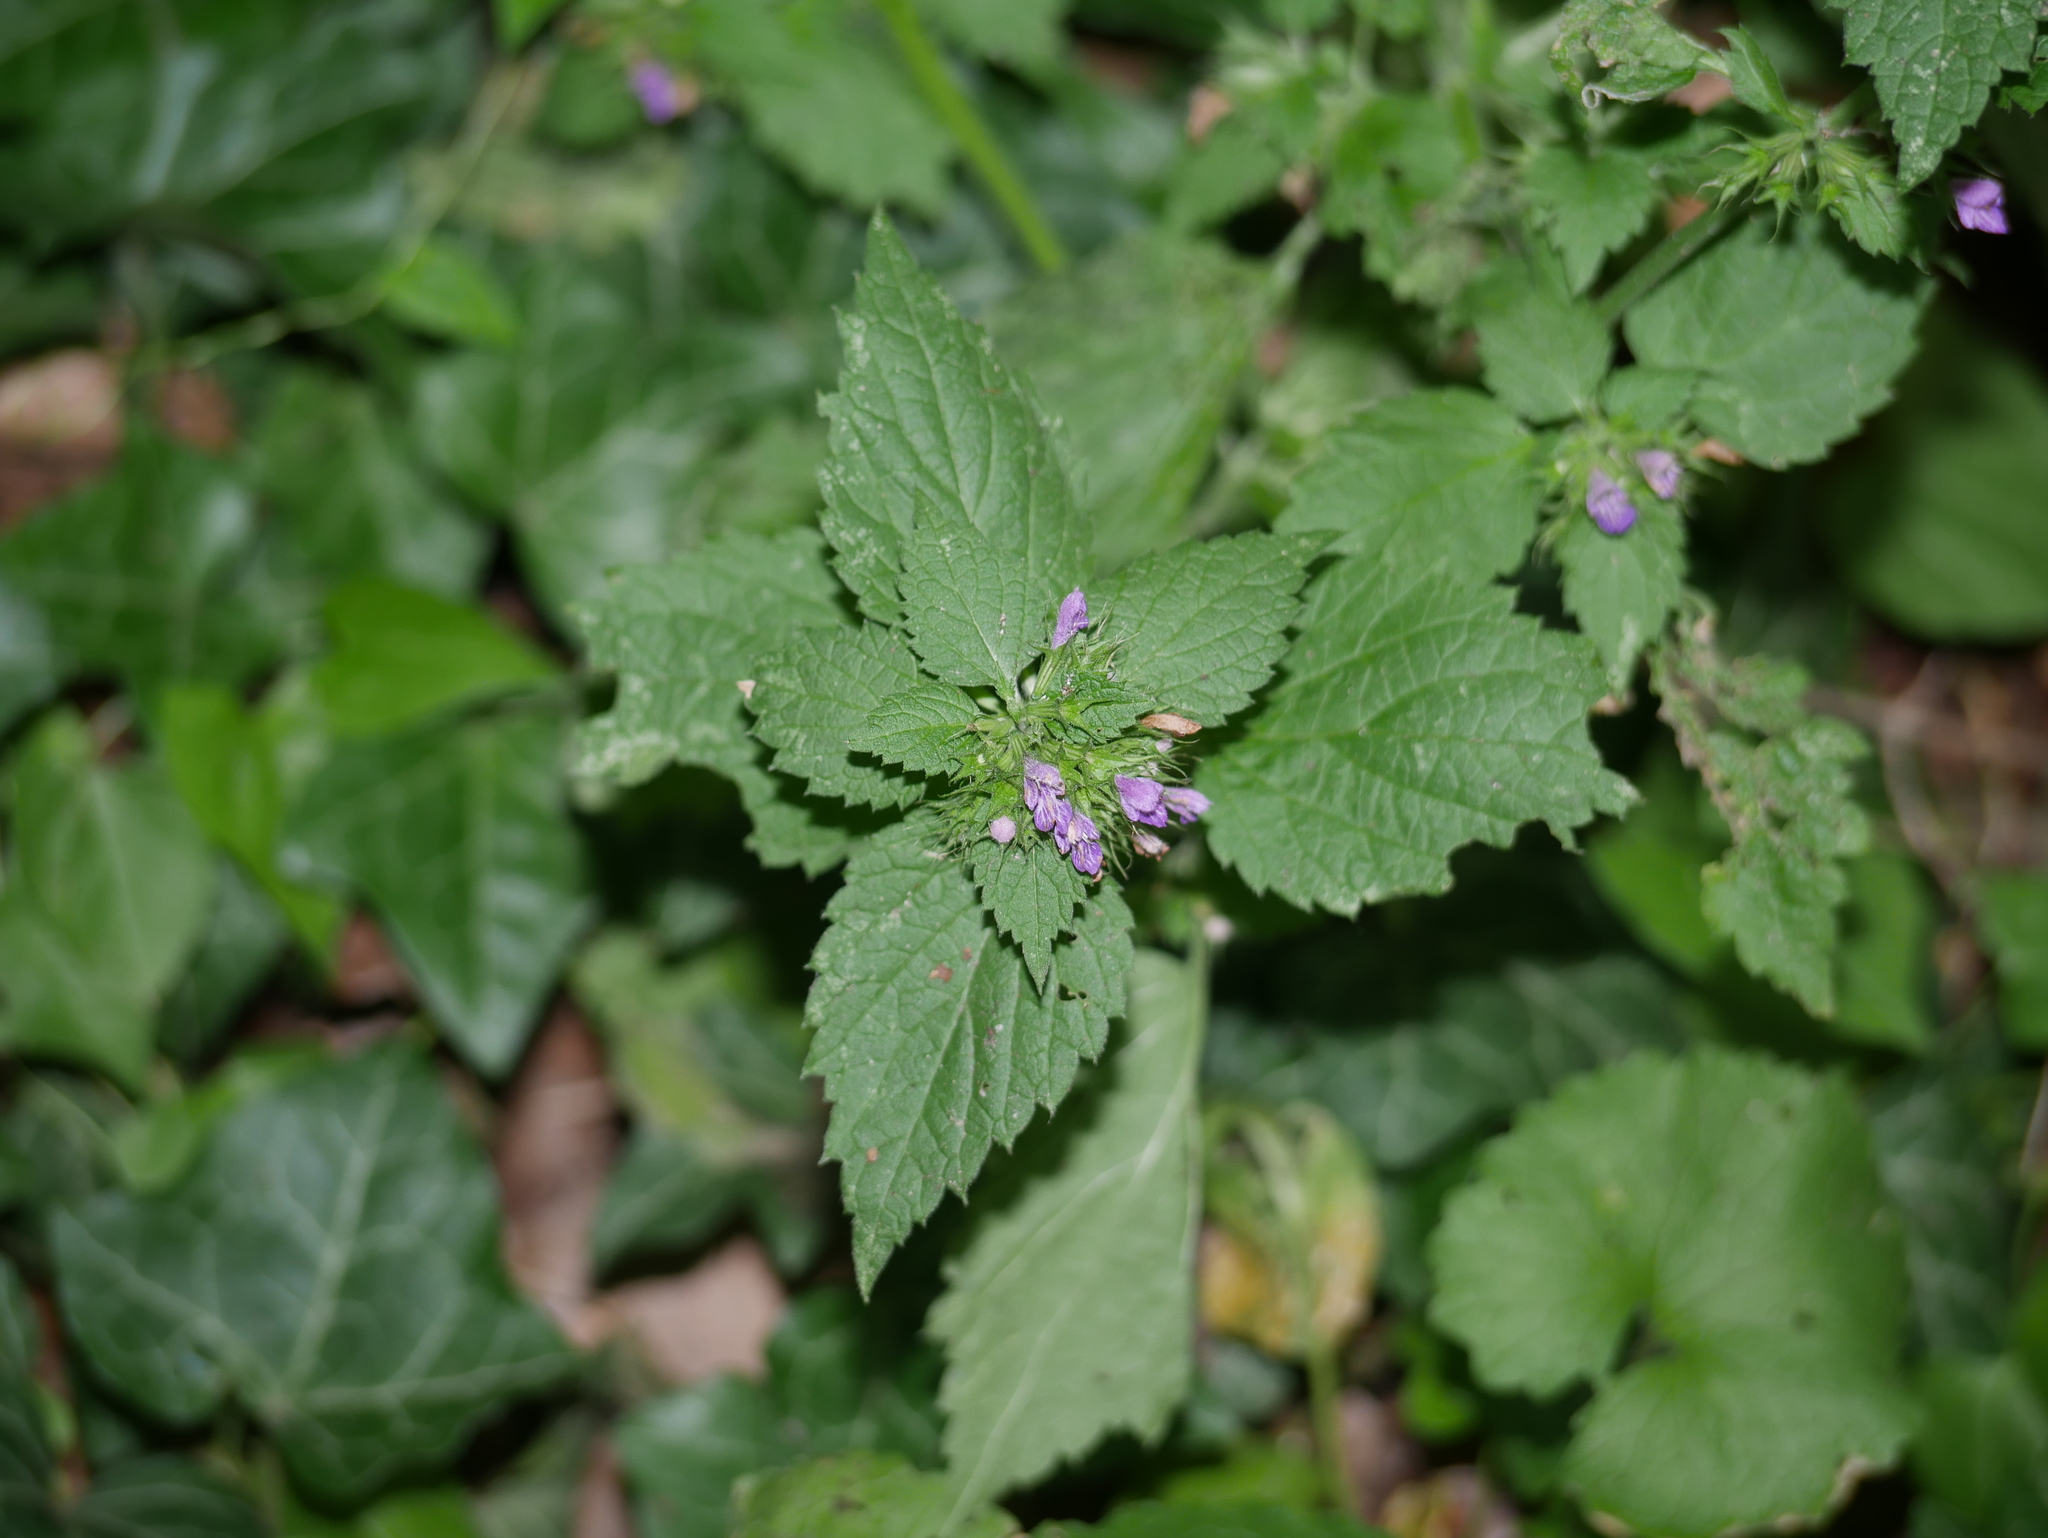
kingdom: Plantae
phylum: Tracheophyta
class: Magnoliopsida
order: Lamiales
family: Lamiaceae
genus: Ballota
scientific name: Ballota nigra
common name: Black horehound
